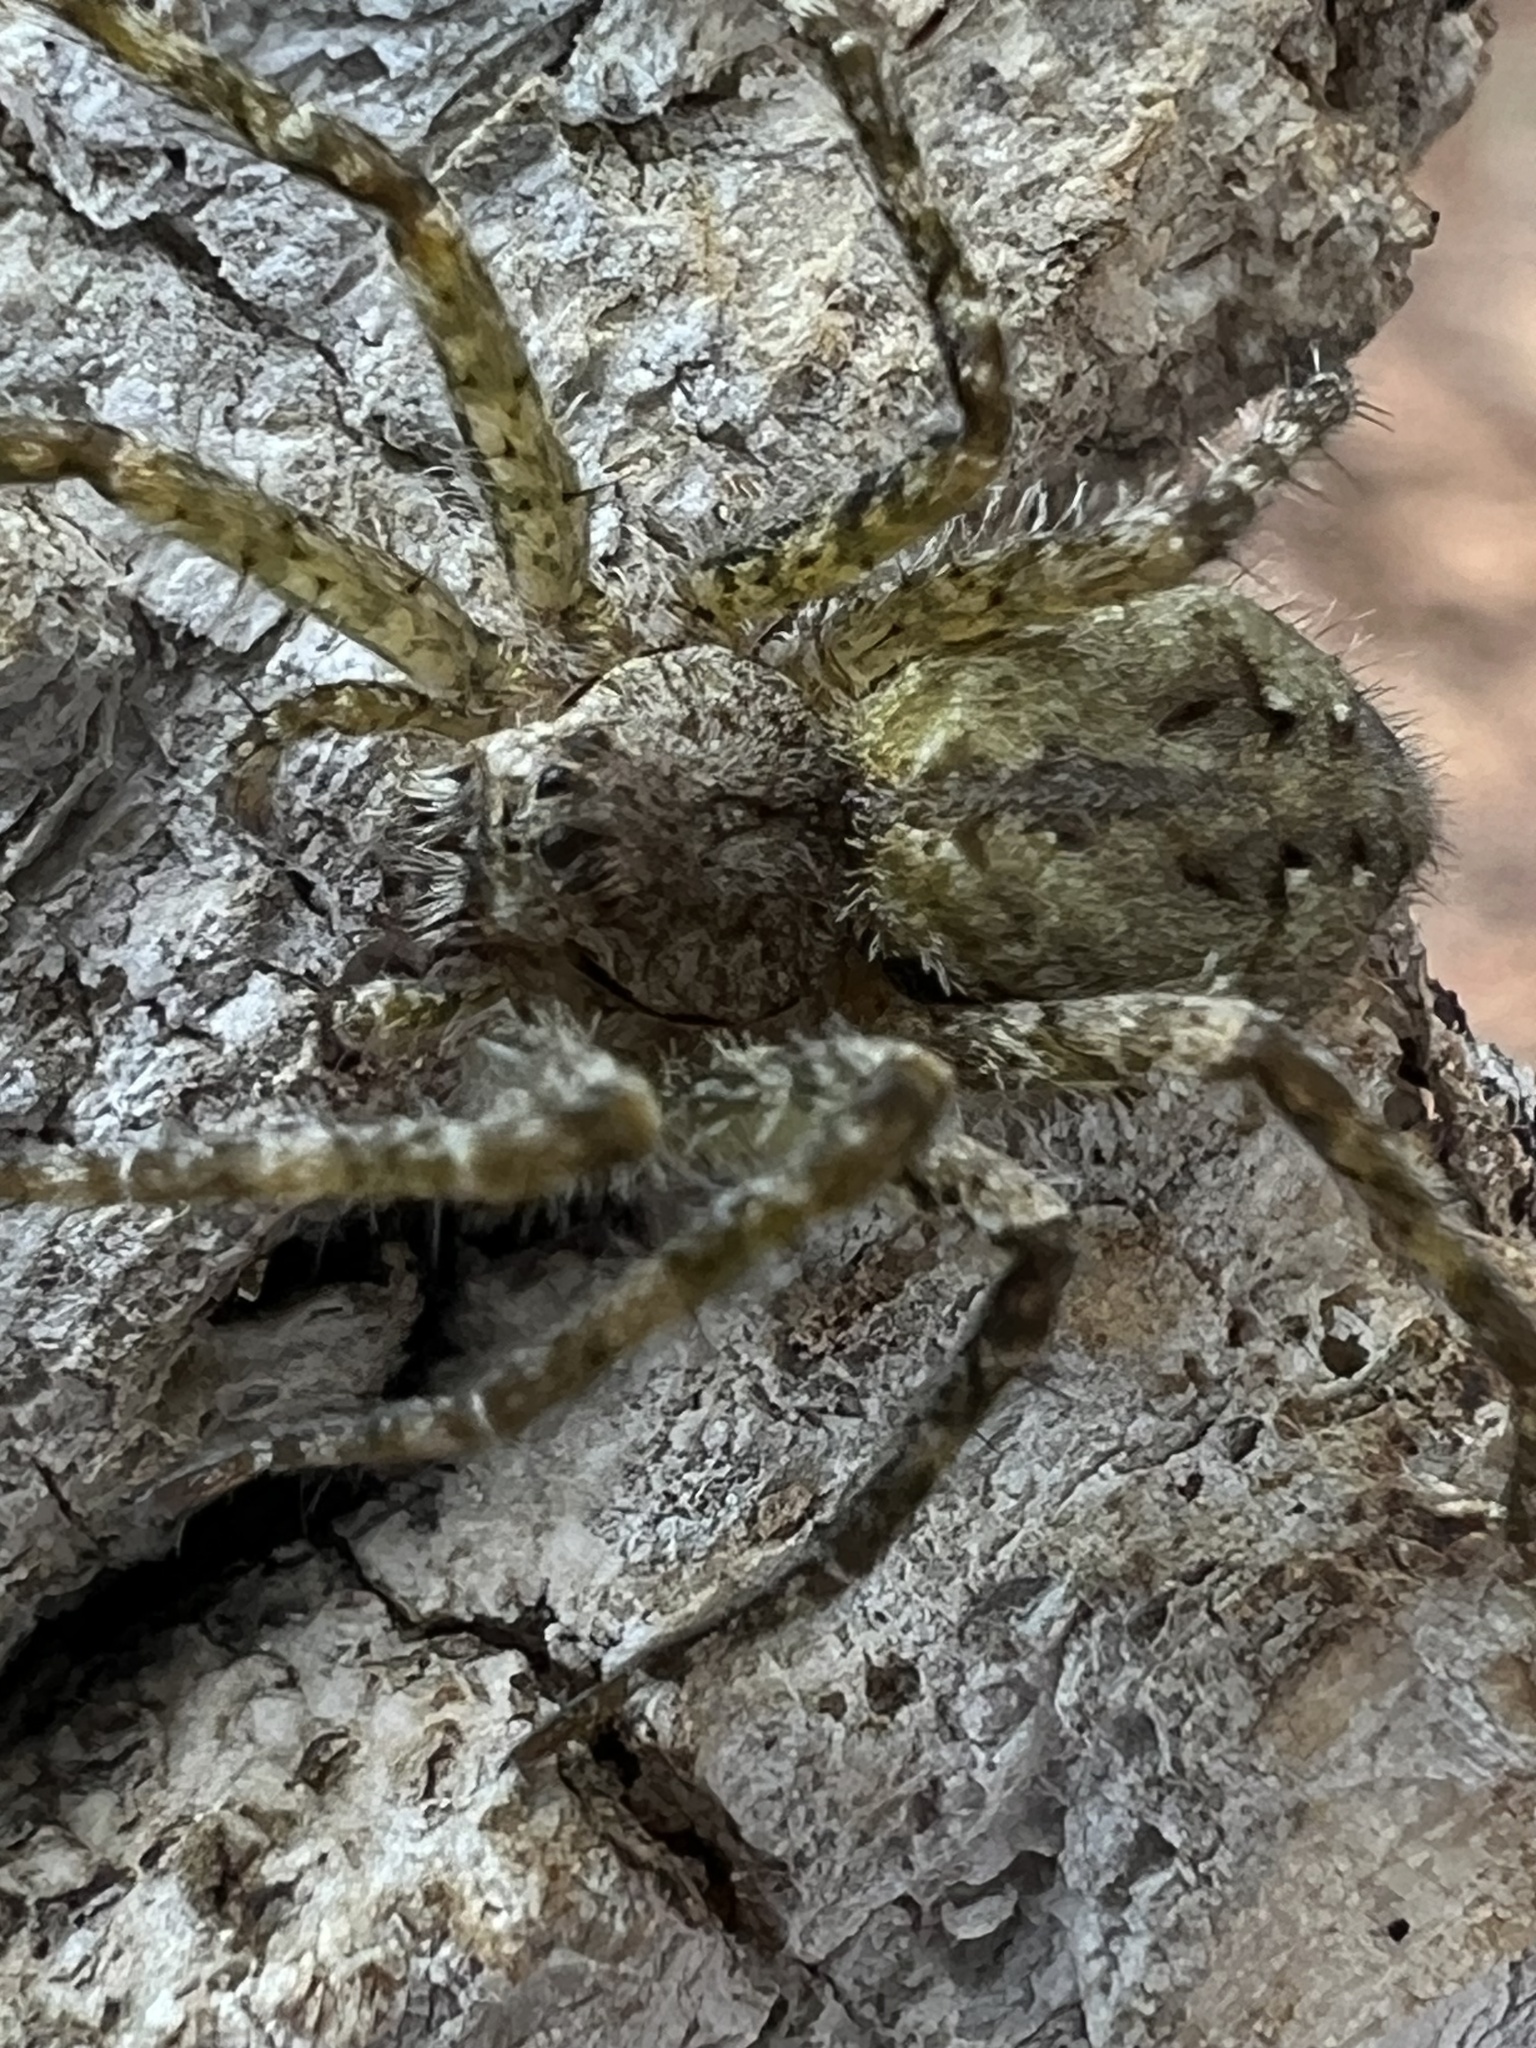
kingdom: Animalia
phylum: Arthropoda
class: Arachnida
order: Araneae
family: Pisauridae
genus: Dolomedes
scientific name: Dolomedes albineus
